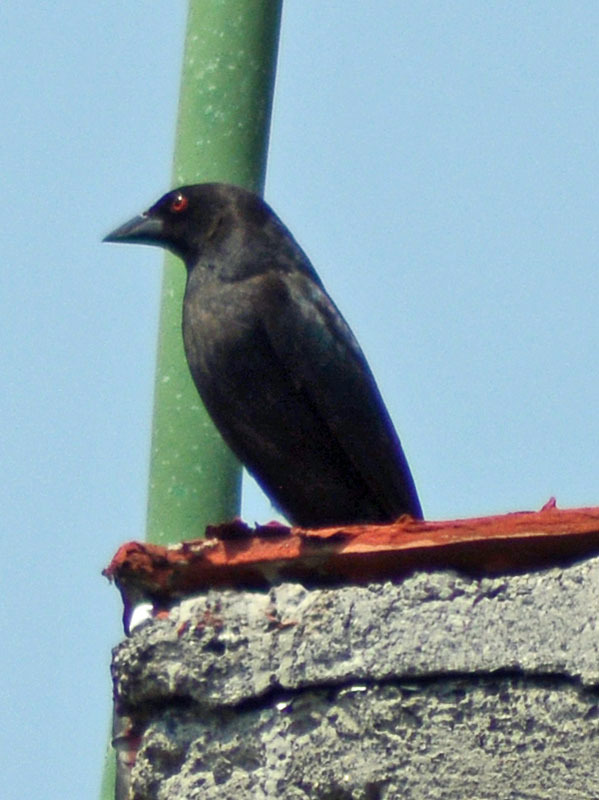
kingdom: Animalia
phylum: Chordata
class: Aves
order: Passeriformes
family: Icteridae
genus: Molothrus
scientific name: Molothrus aeneus
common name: Bronzed cowbird
